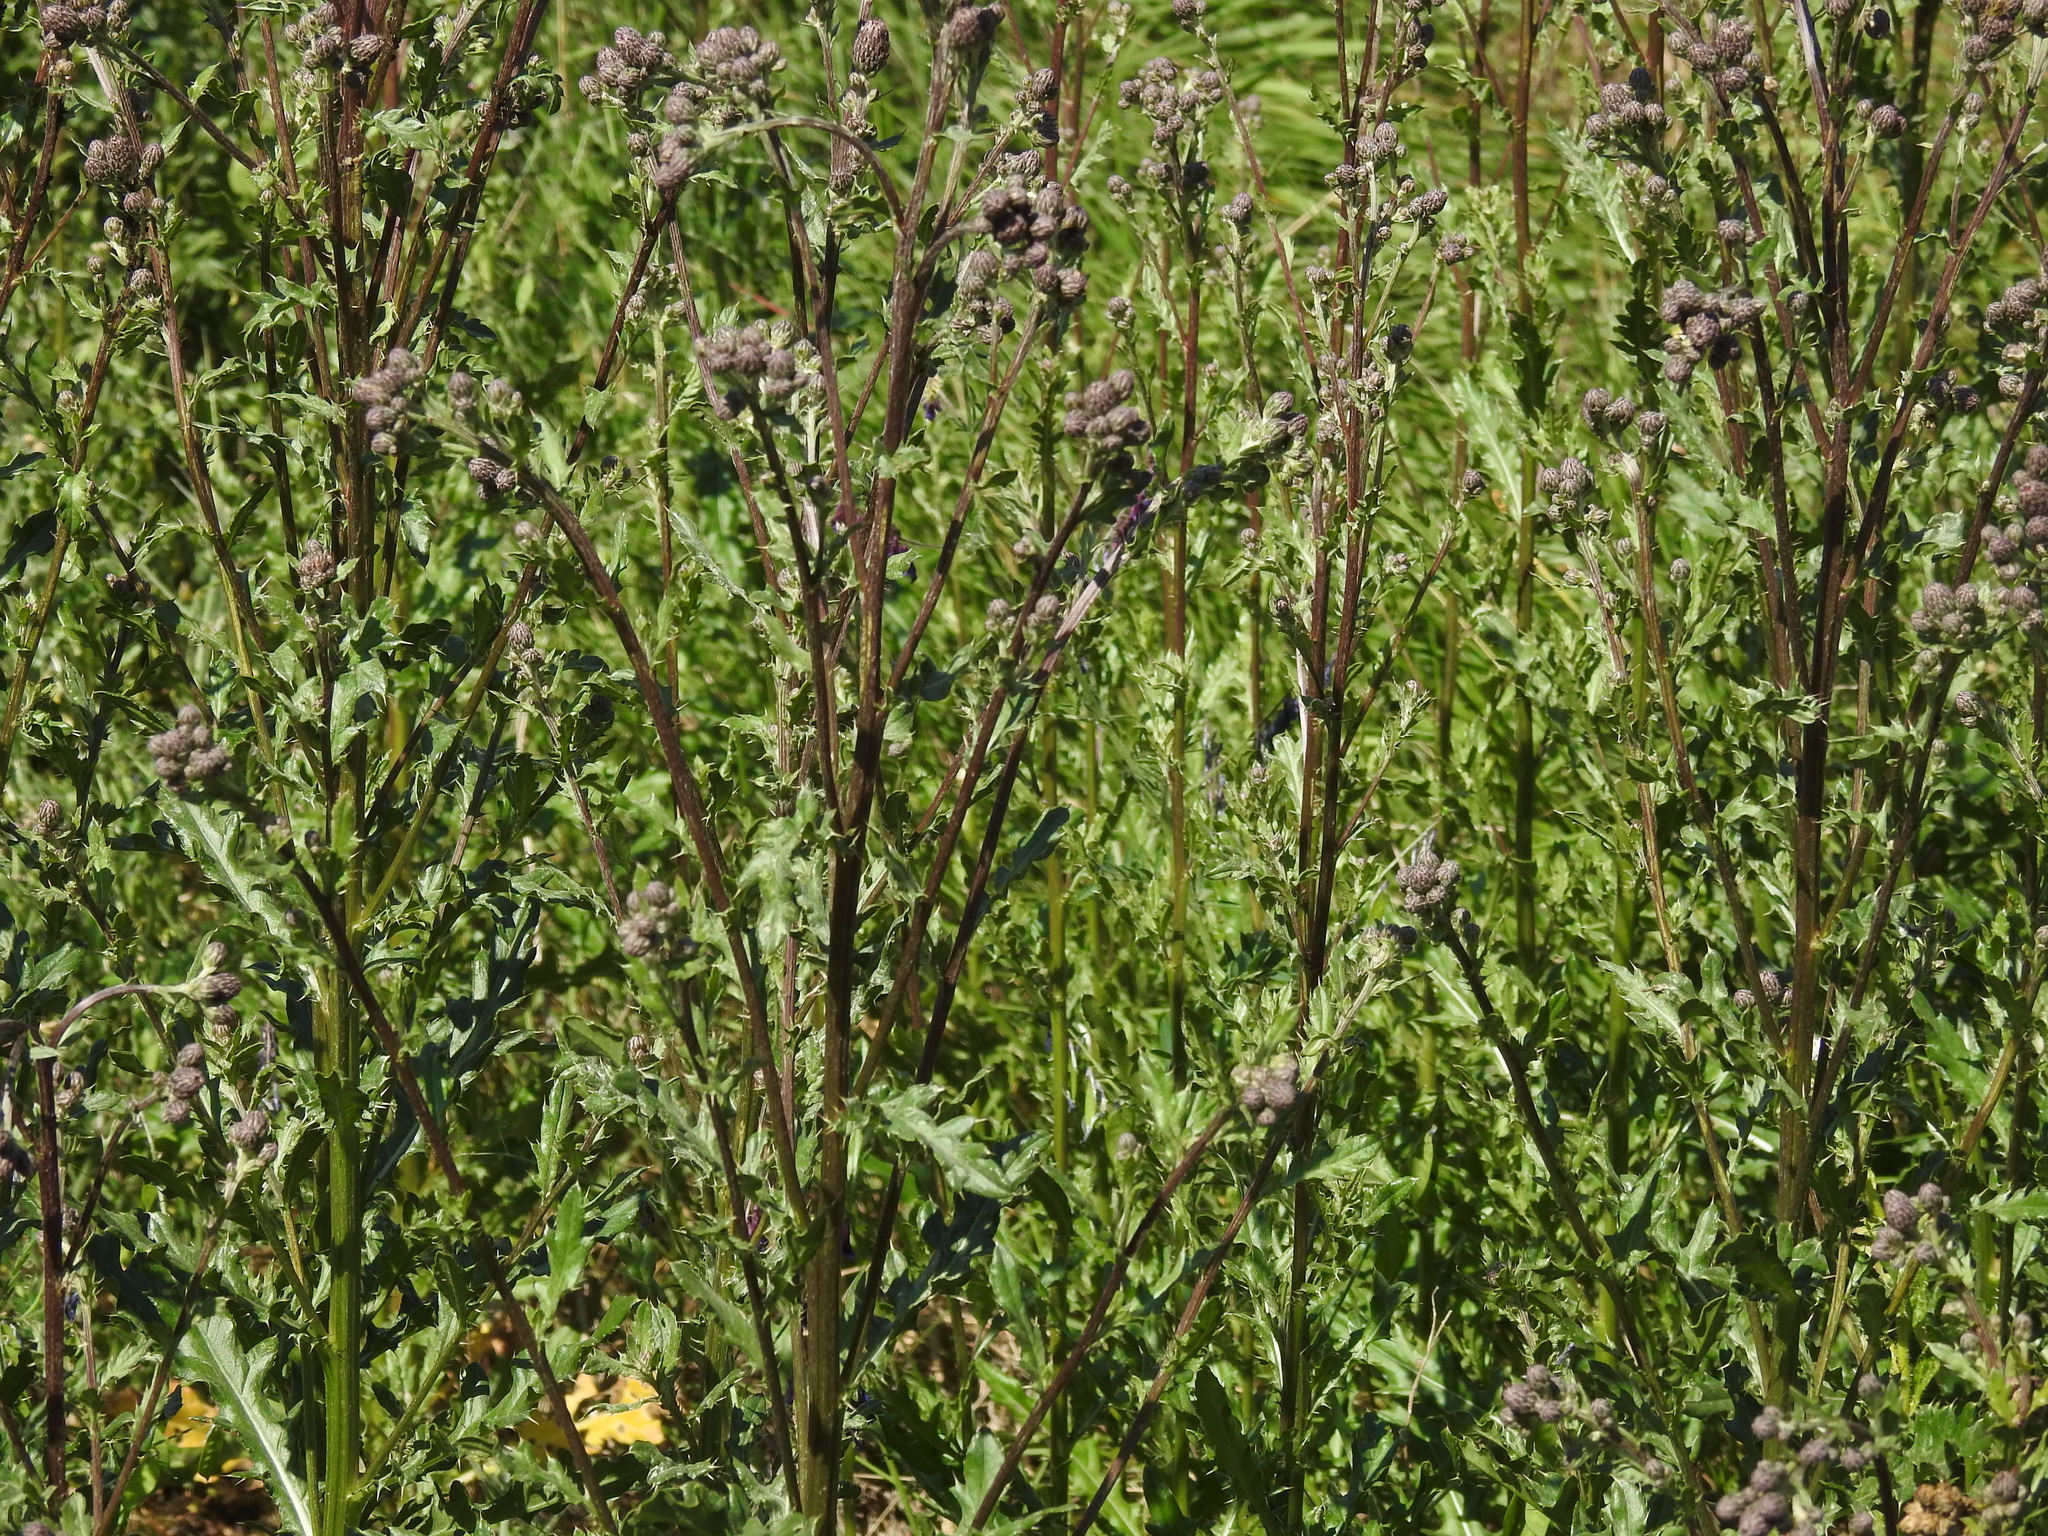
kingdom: Plantae
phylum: Tracheophyta
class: Magnoliopsida
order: Asterales
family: Asteraceae
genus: Cirsium
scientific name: Cirsium arvense
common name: Creeping thistle
